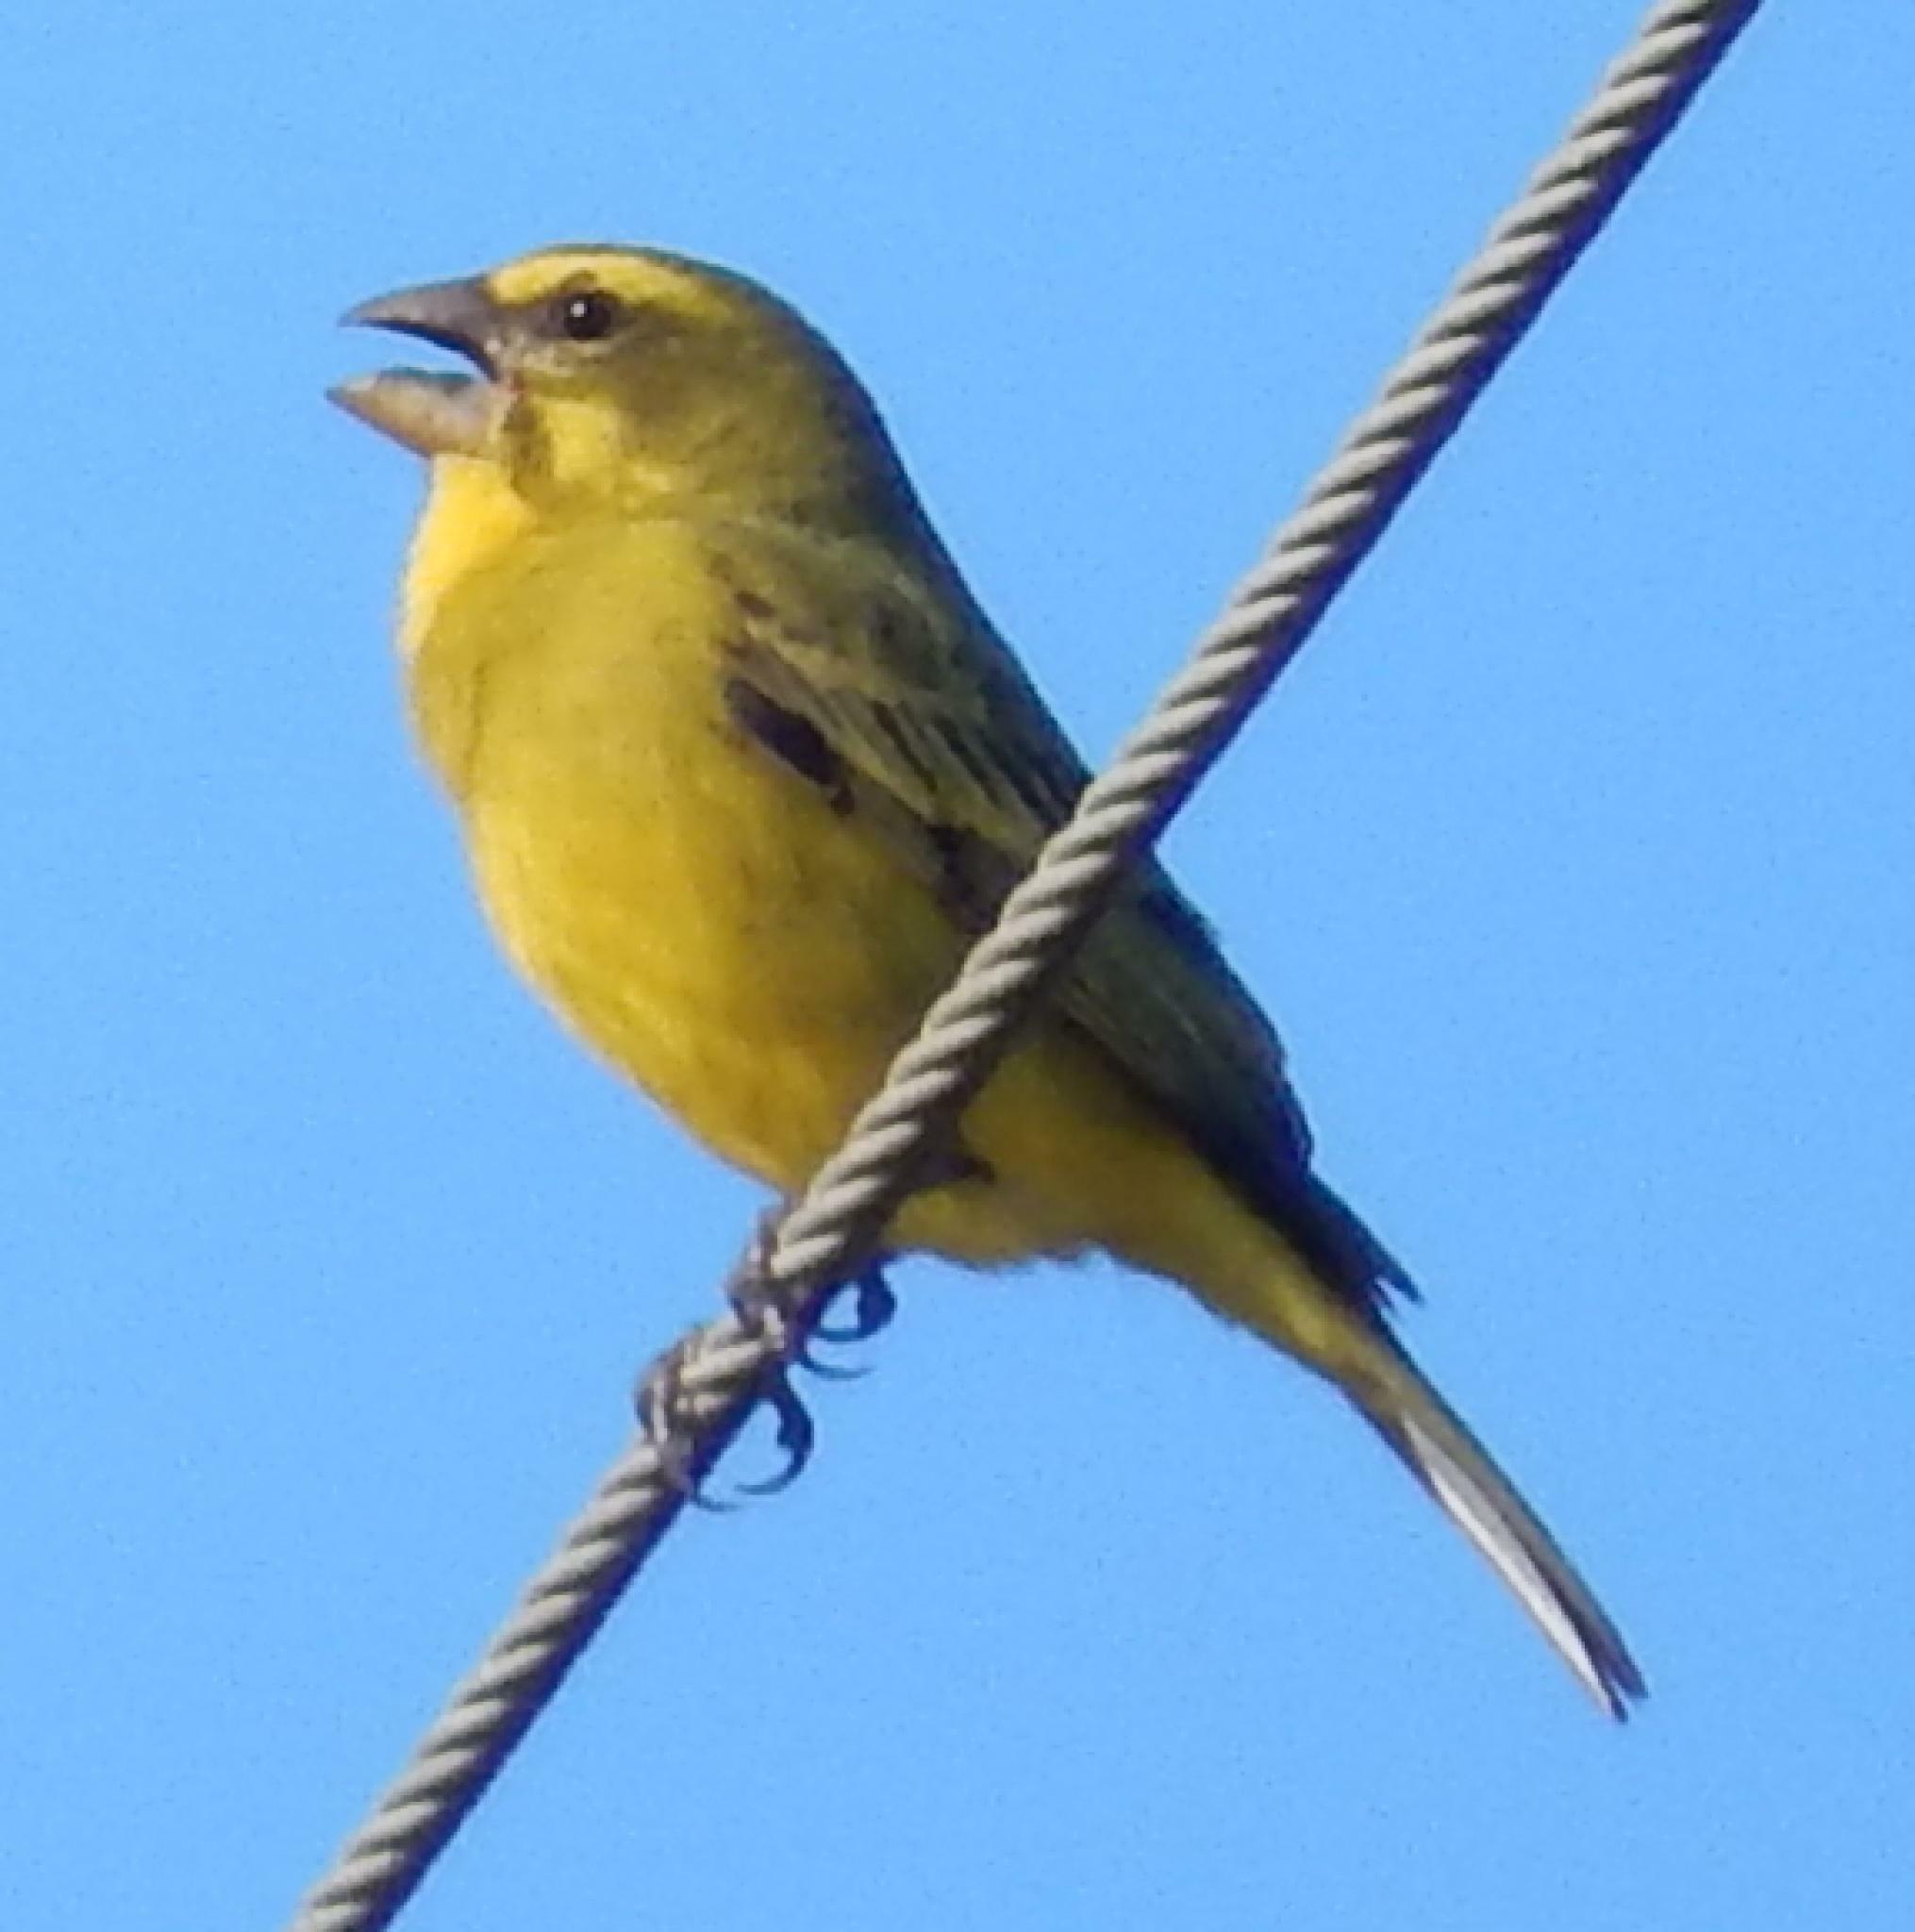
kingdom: Animalia
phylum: Chordata
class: Aves
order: Passeriformes
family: Fringillidae
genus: Crithagra
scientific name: Crithagra sulphurata
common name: Brimstone canary
